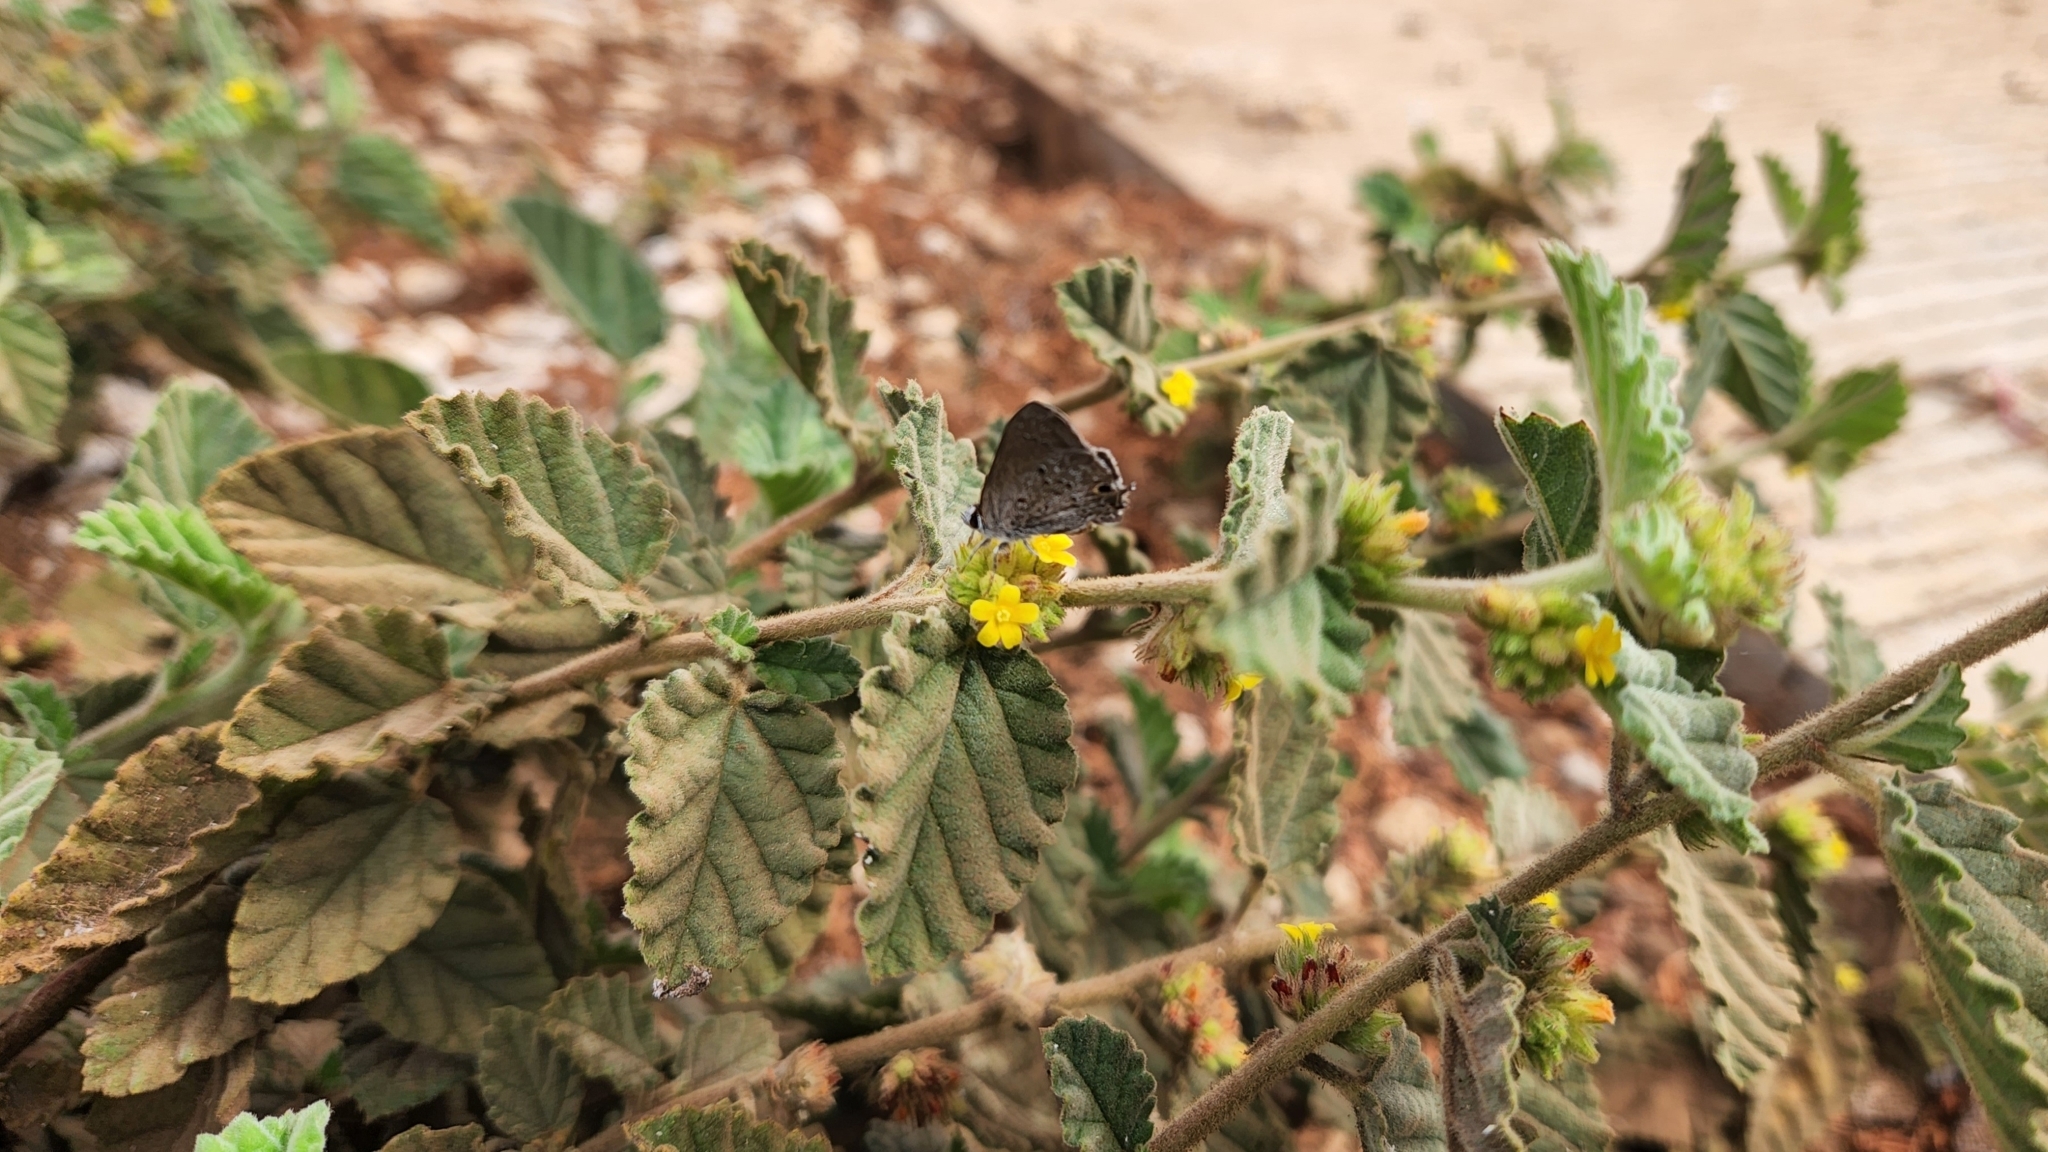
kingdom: Plantae
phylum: Tracheophyta
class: Magnoliopsida
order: Malvales
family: Malvaceae
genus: Waltheria
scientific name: Waltheria indica
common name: Leather-coat
